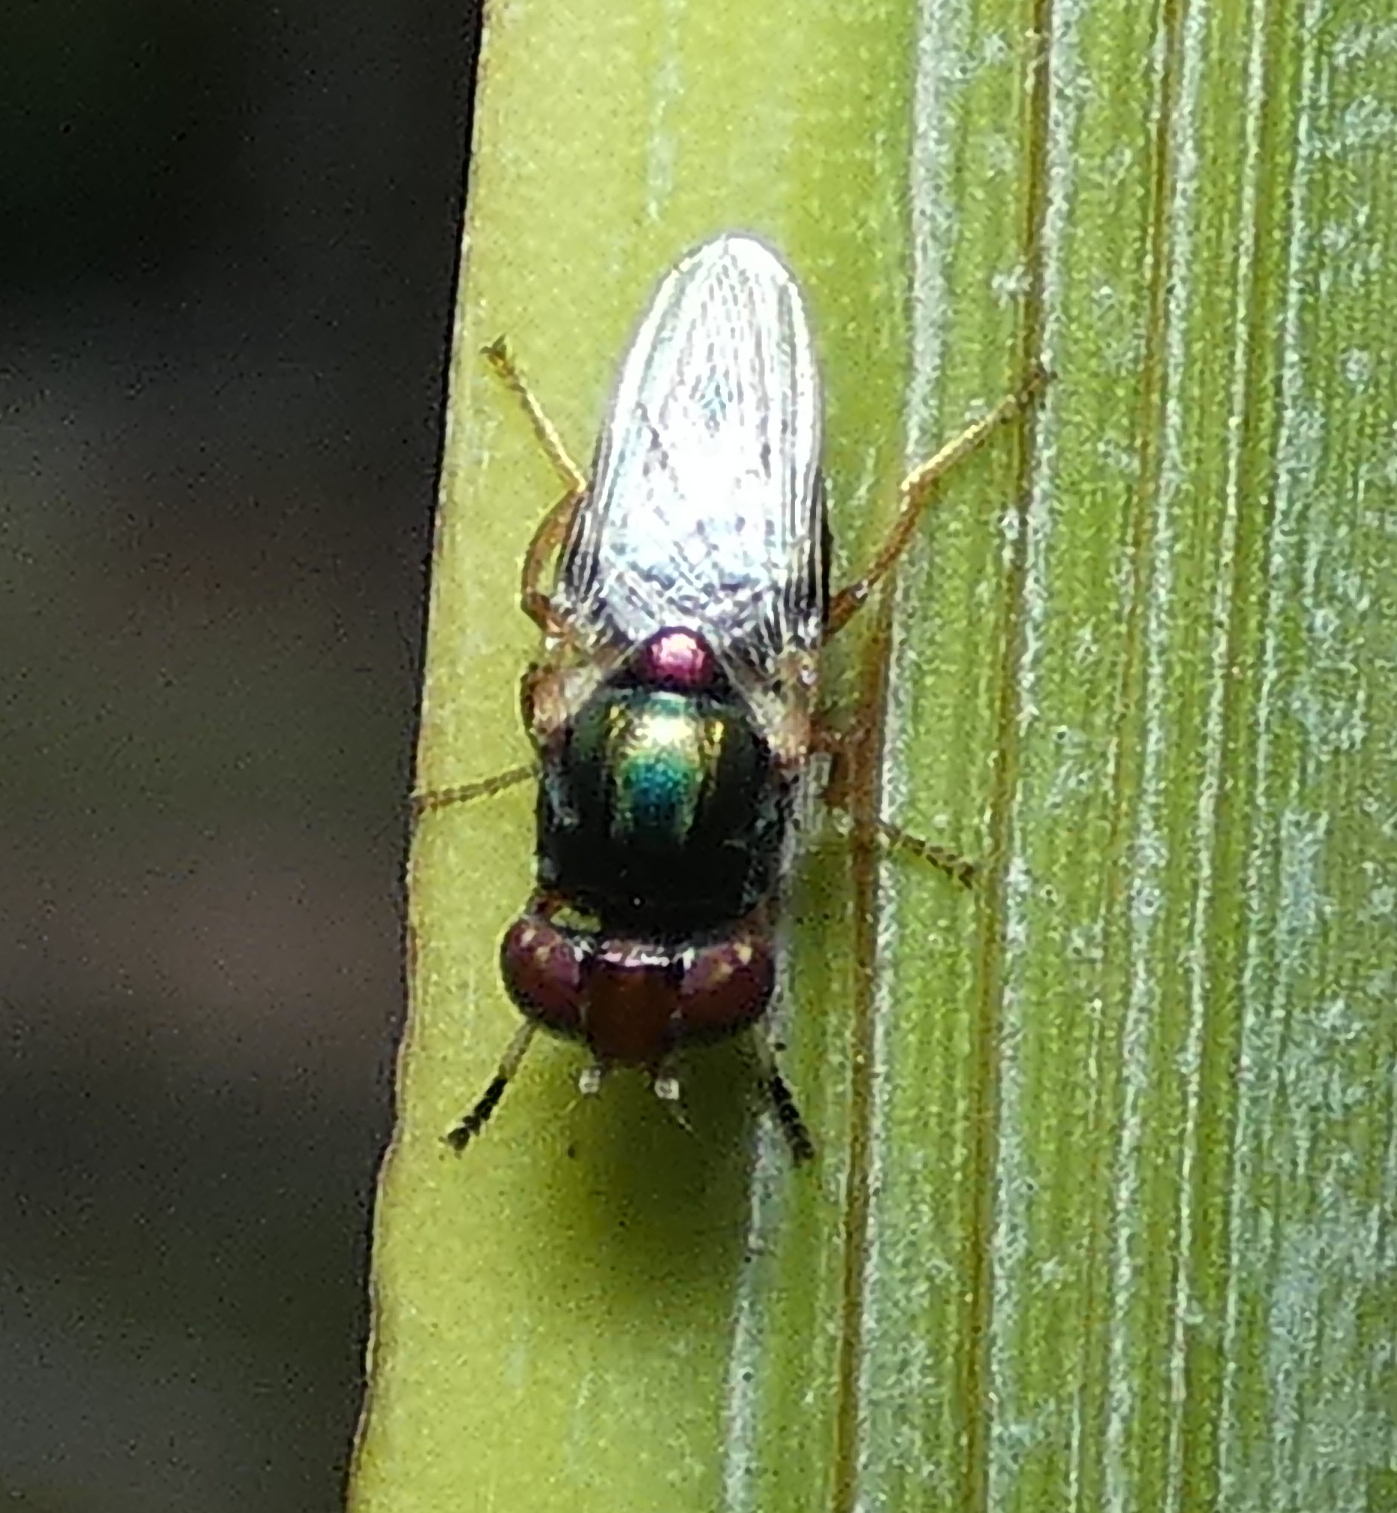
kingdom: Animalia
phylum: Arthropoda
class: Insecta
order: Diptera
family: Ulidiidae
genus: Physiphora
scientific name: Physiphora clausa
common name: Picture-winged fly
